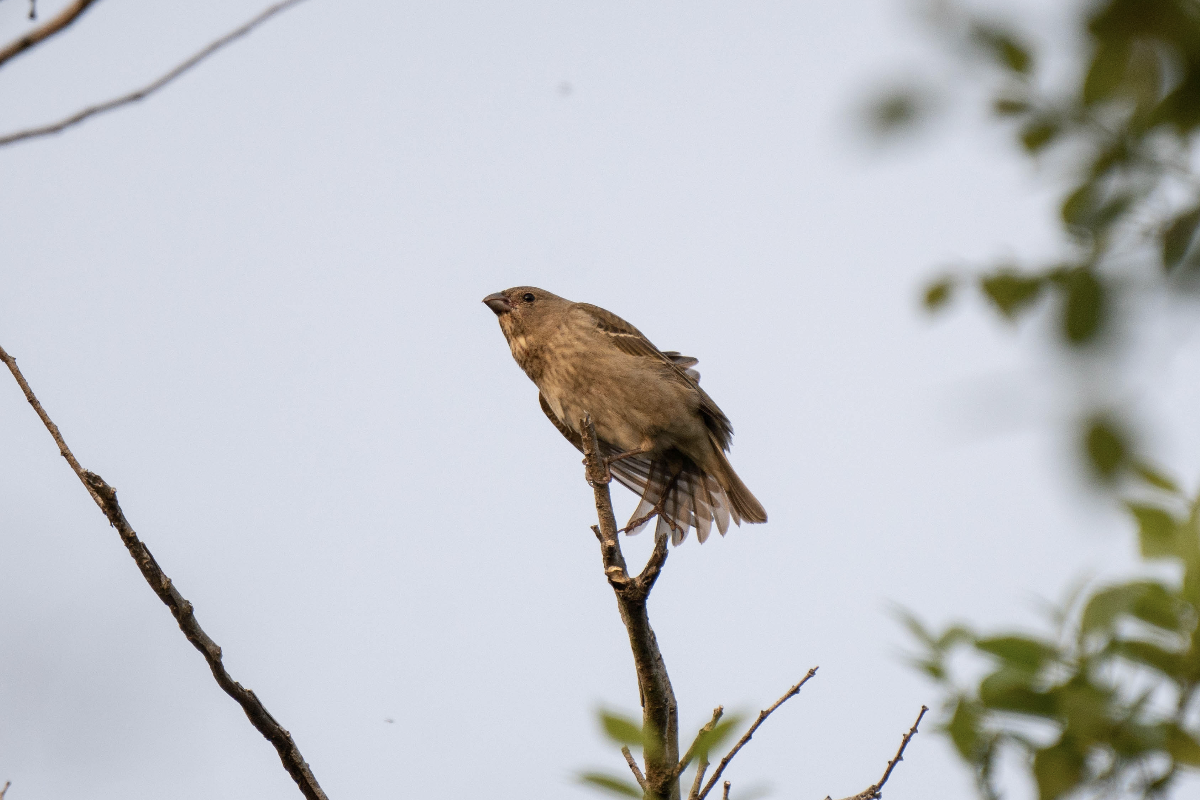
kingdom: Animalia
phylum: Chordata
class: Aves
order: Passeriformes
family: Fringillidae
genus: Carpodacus
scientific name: Carpodacus erythrinus
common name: Common rosefinch
